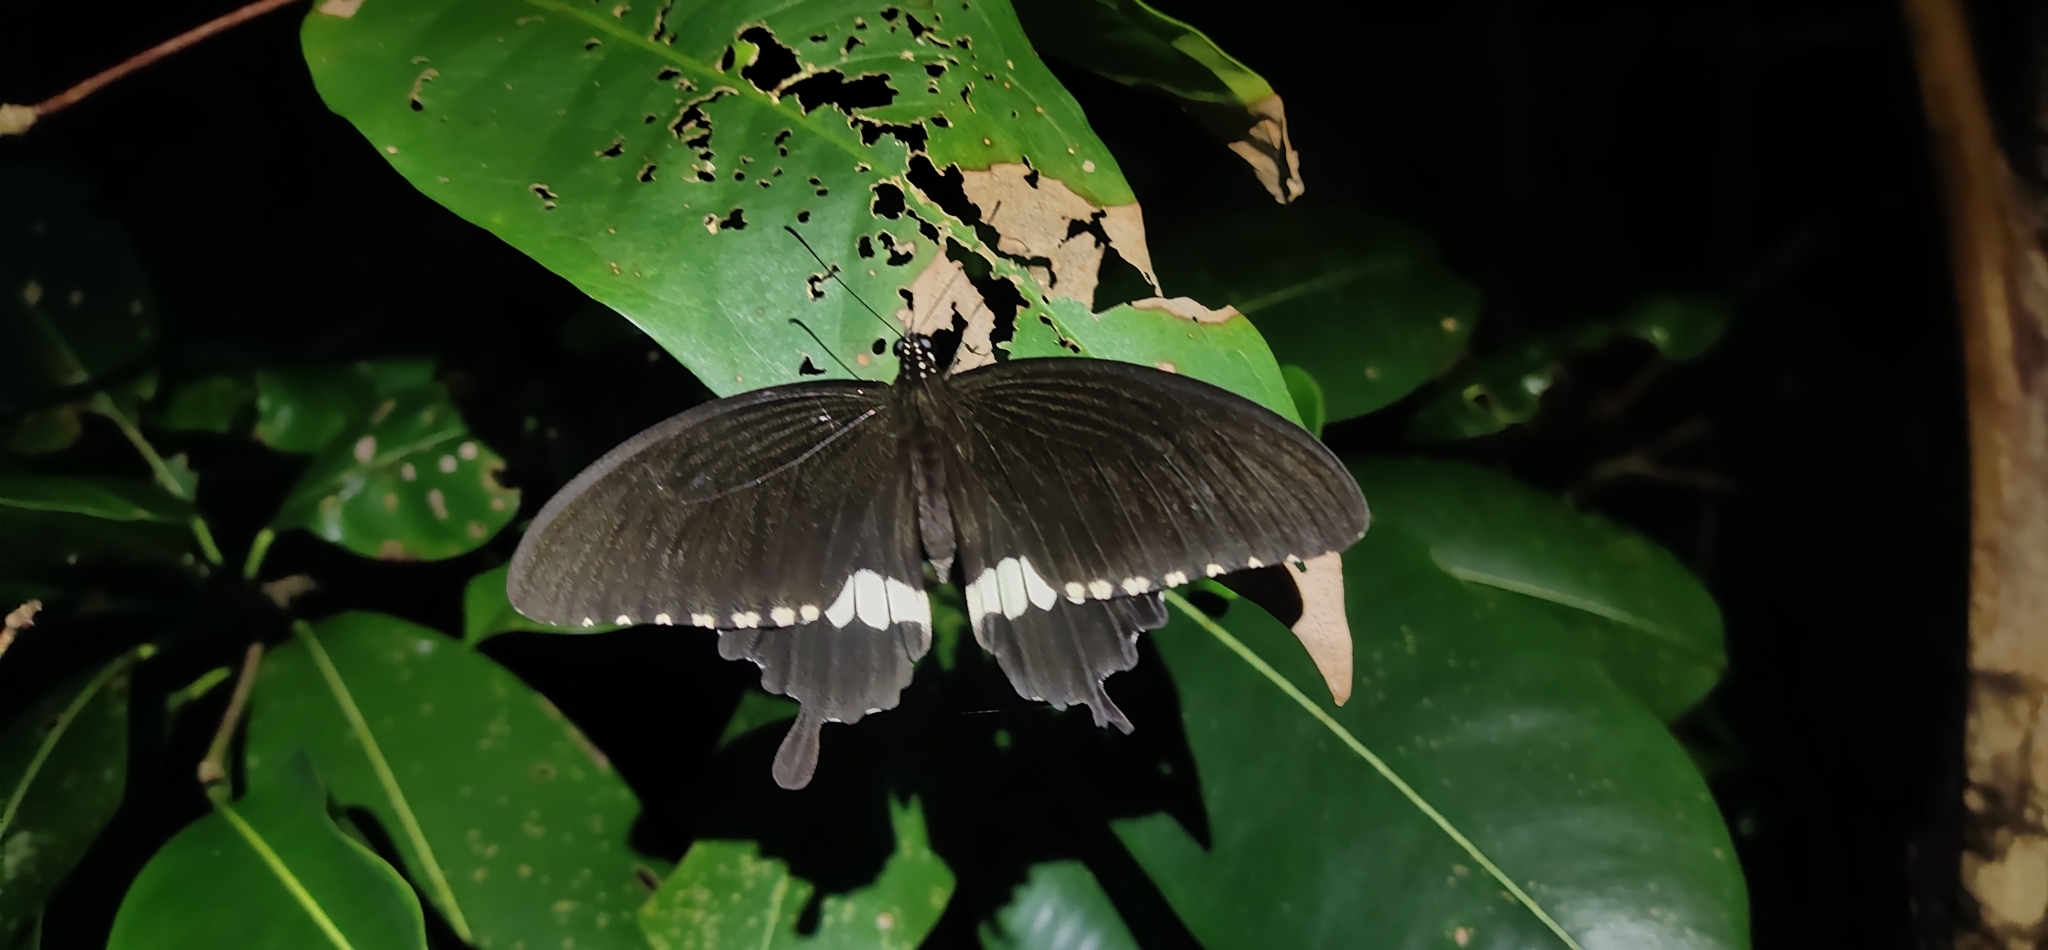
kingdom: Animalia
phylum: Arthropoda
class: Insecta
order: Lepidoptera
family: Papilionidae
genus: Papilio
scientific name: Papilio polytes
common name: Common mormon
